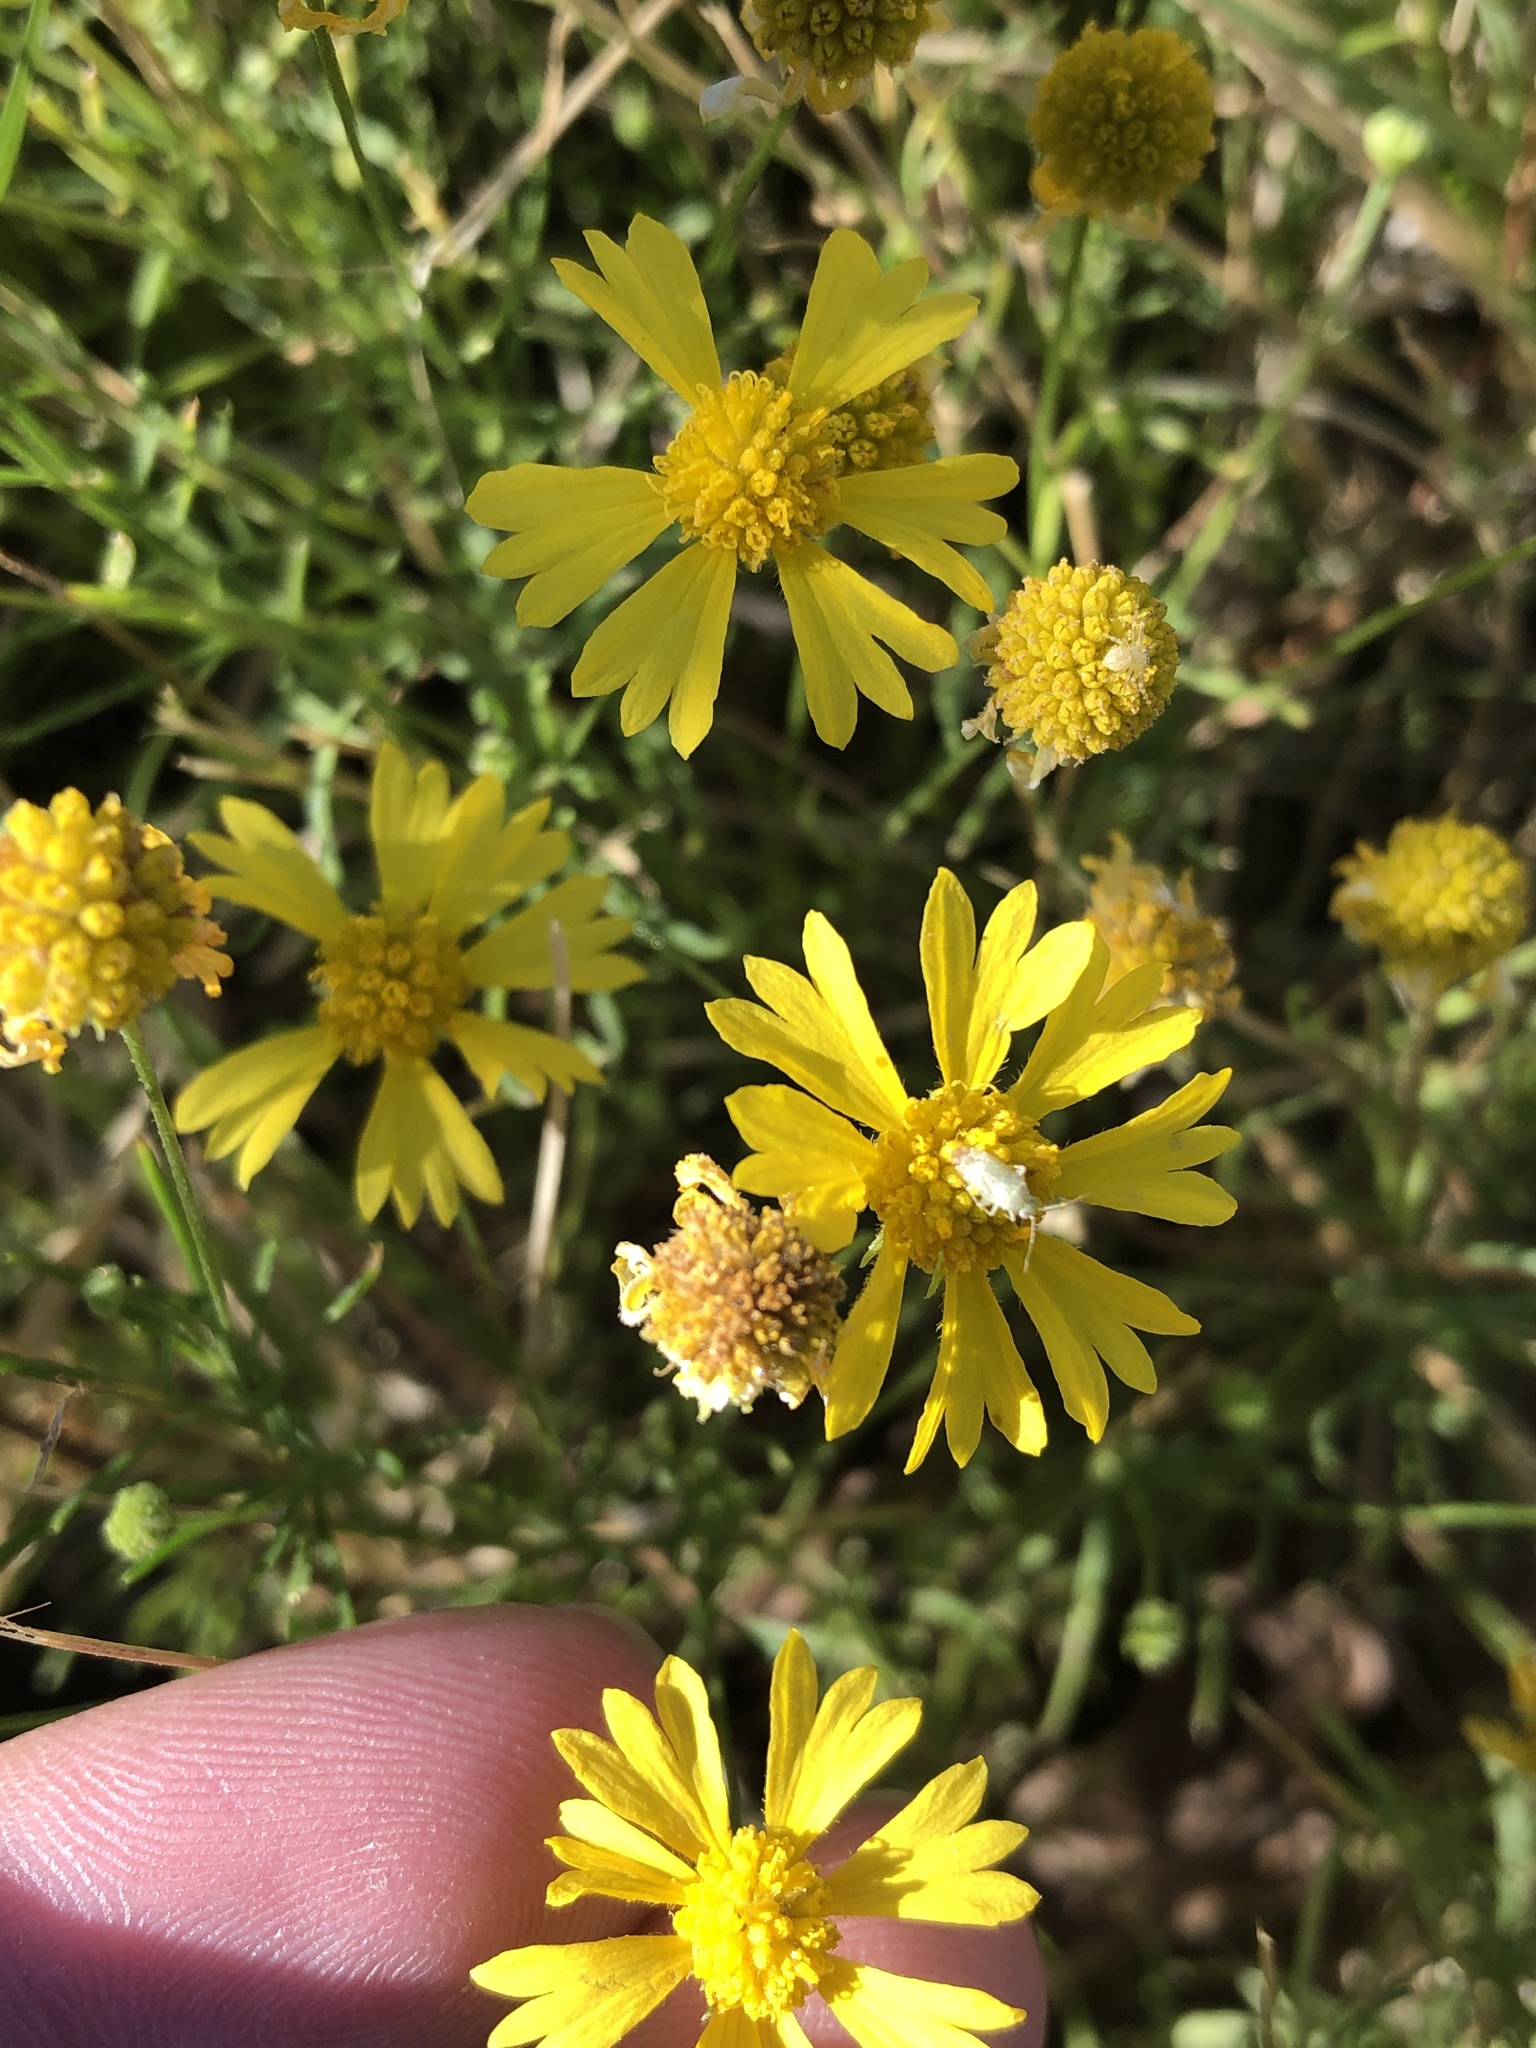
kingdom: Plantae
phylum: Tracheophyta
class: Magnoliopsida
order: Asterales
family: Asteraceae
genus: Helenium
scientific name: Helenium amarum
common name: Bitter sneezeweed
